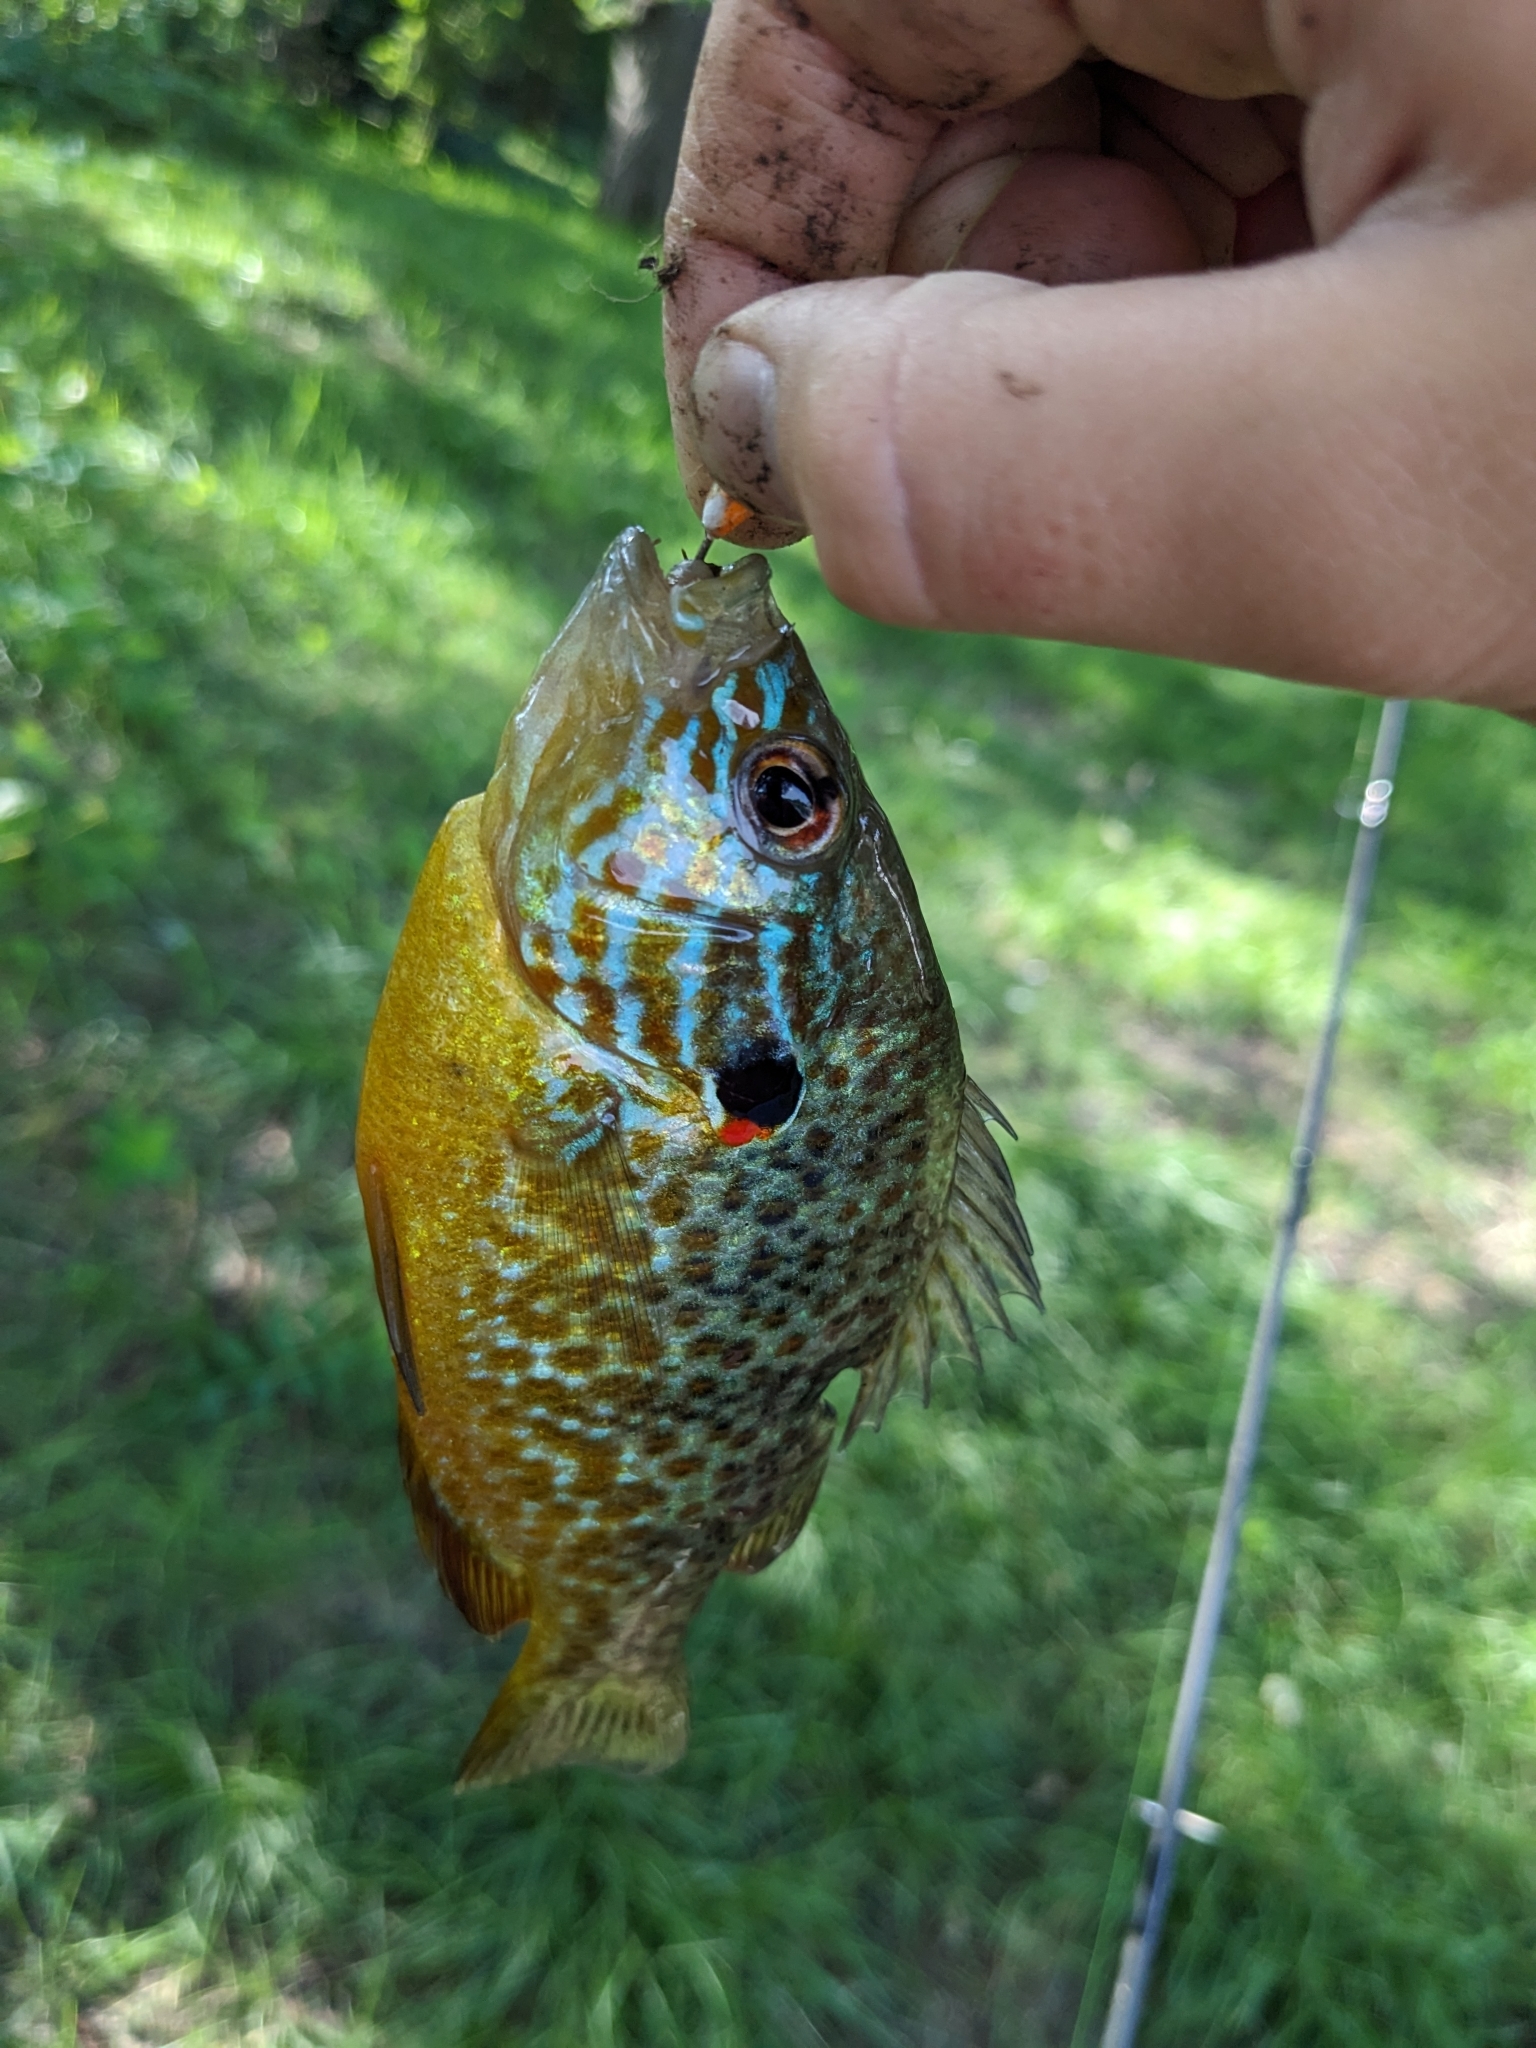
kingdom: Animalia
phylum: Chordata
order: Perciformes
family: Centrarchidae
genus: Lepomis
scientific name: Lepomis gibbosus
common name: Pumpkinseed
